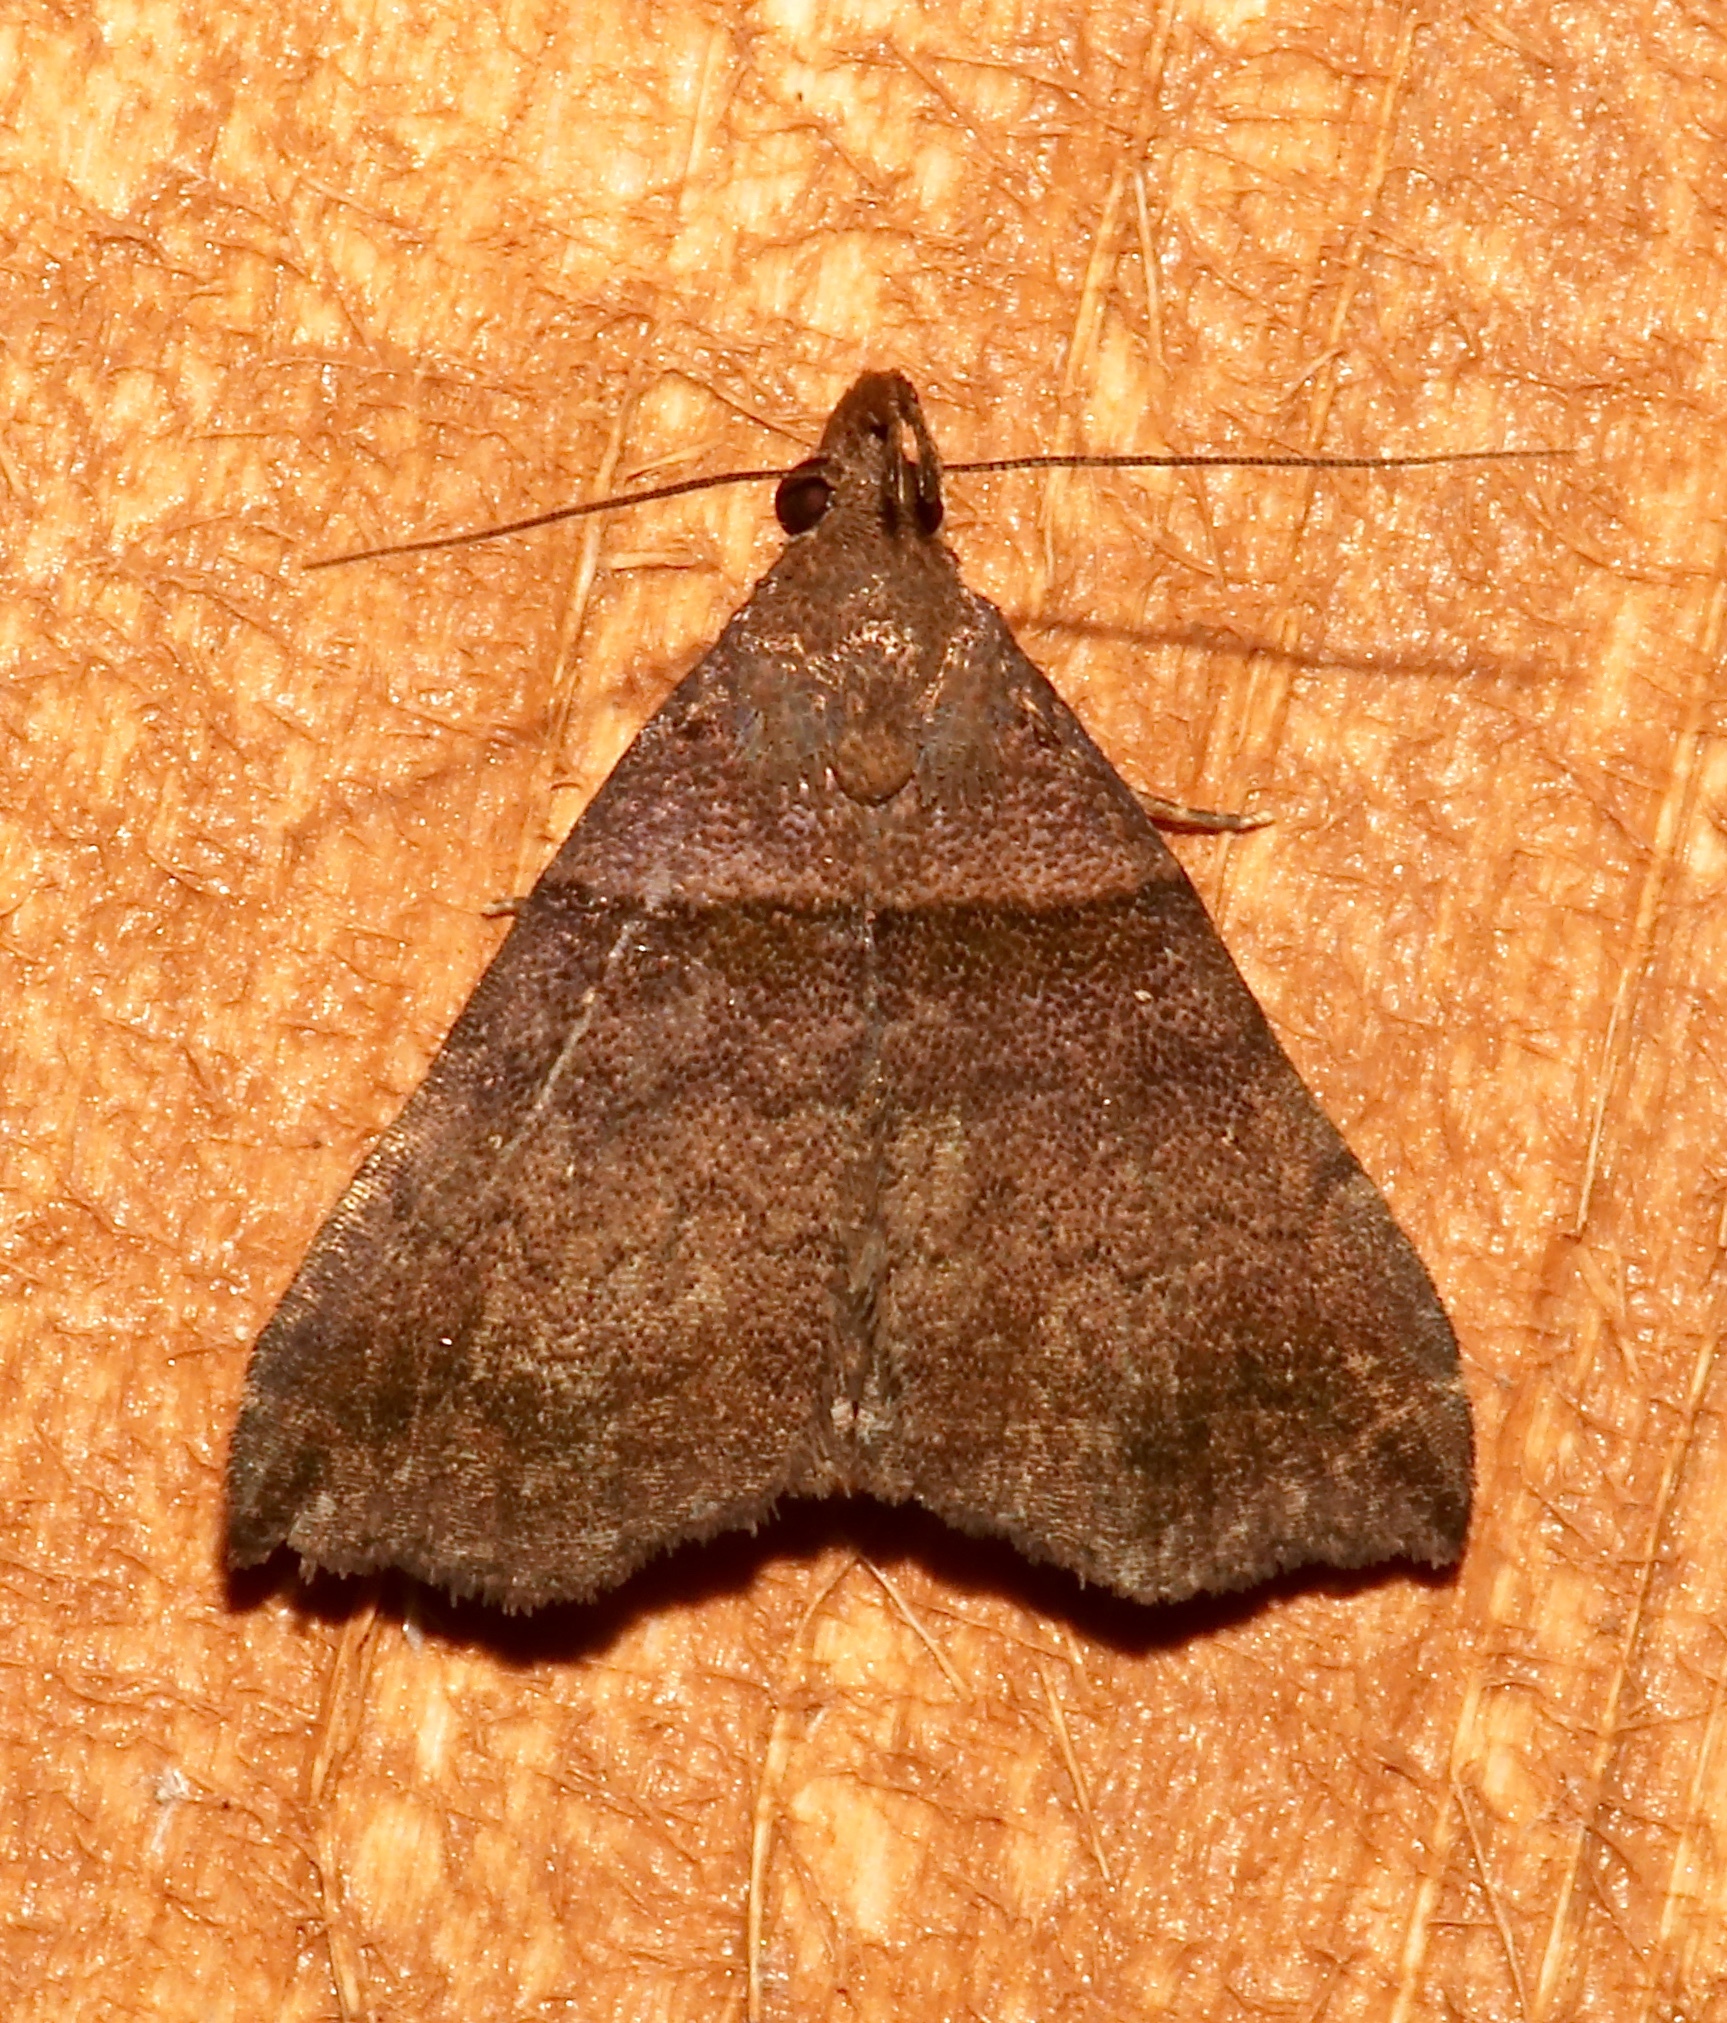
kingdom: Animalia
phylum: Arthropoda
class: Insecta
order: Lepidoptera
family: Erebidae
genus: Lascoria
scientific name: Lascoria ambigualis
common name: Ambiguous moth
